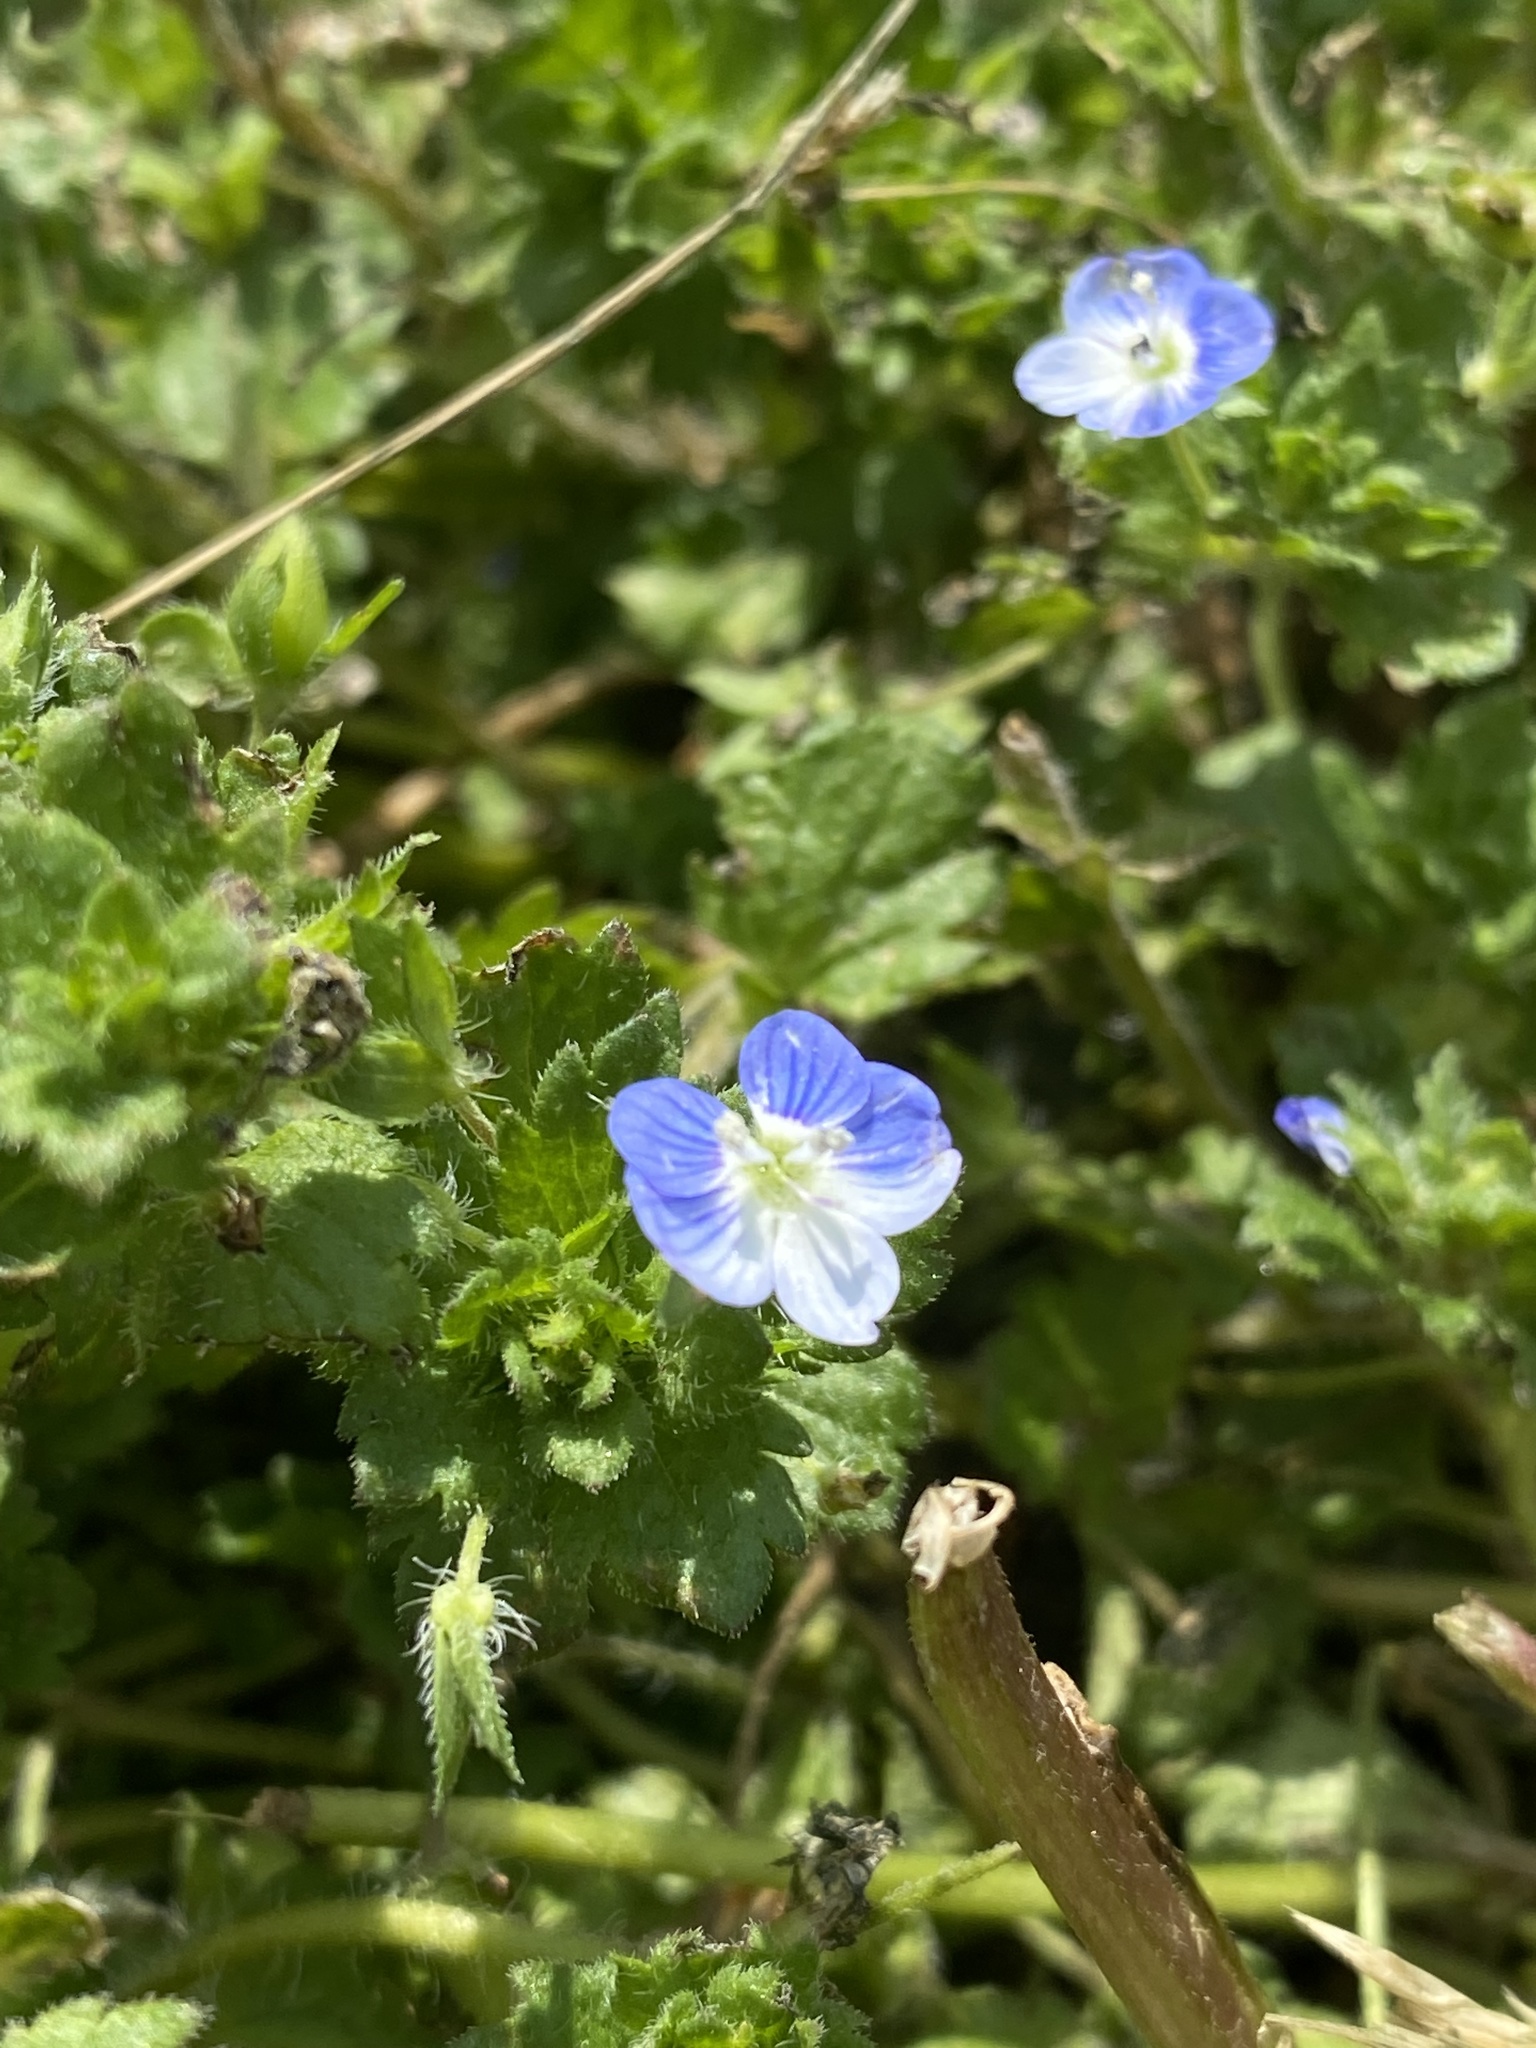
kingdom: Plantae
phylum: Tracheophyta
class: Magnoliopsida
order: Lamiales
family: Plantaginaceae
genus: Veronica
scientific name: Veronica persica
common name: Common field-speedwell
